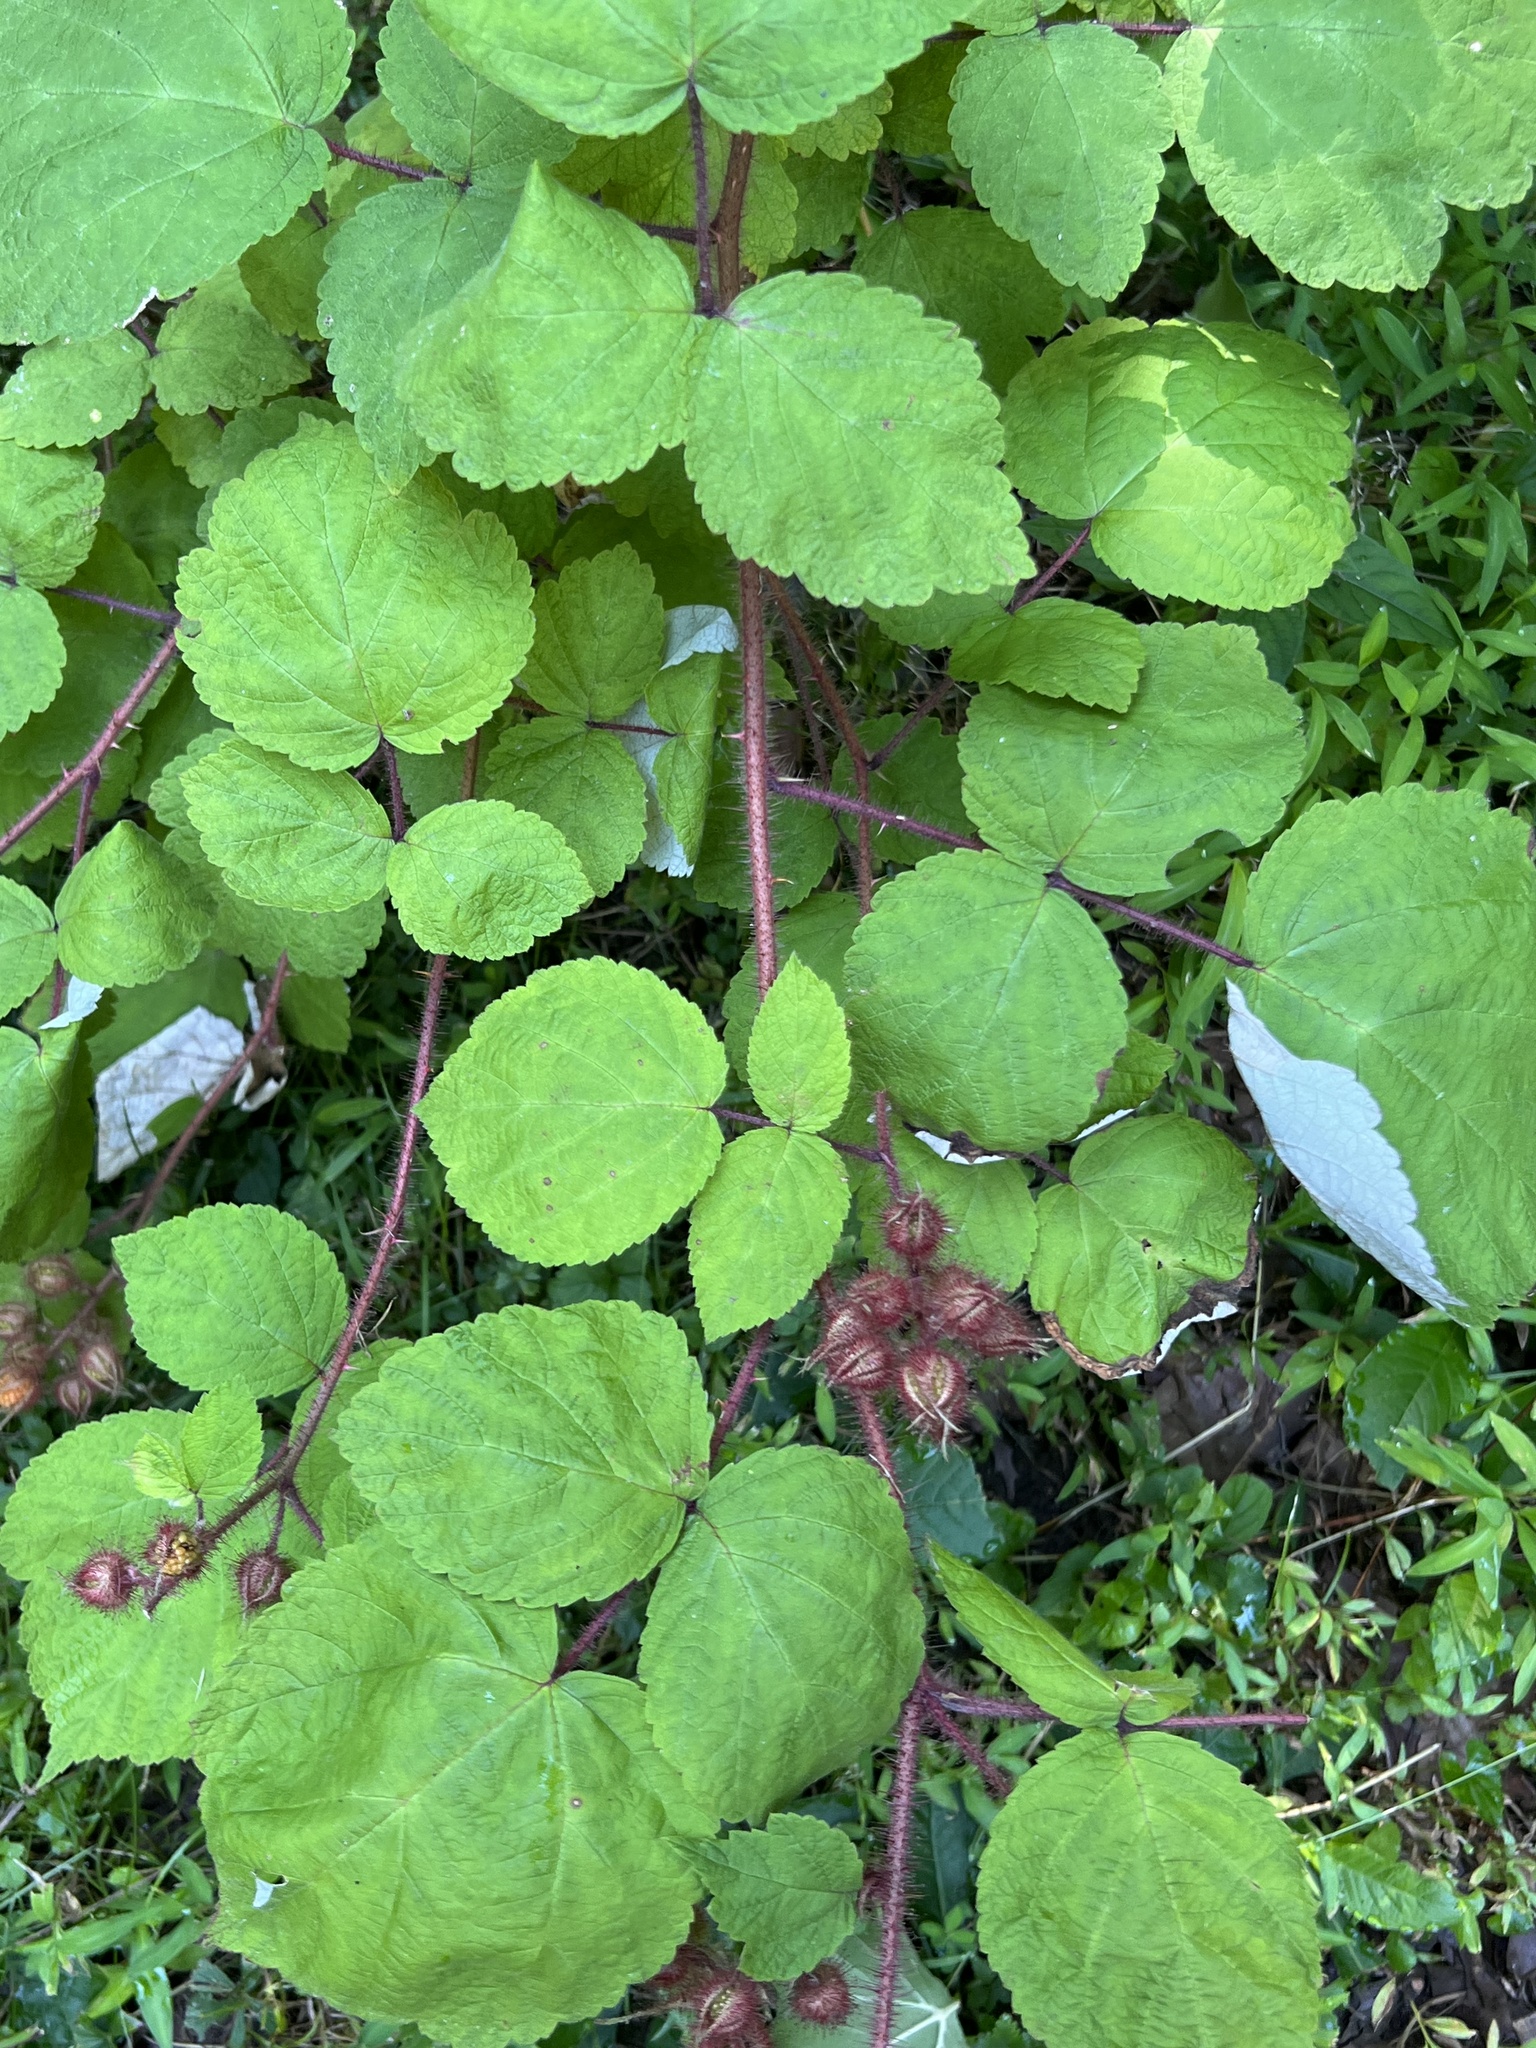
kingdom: Plantae
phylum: Tracheophyta
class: Magnoliopsida
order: Rosales
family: Rosaceae
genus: Rubus
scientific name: Rubus phoenicolasius
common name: Japanese wineberry
